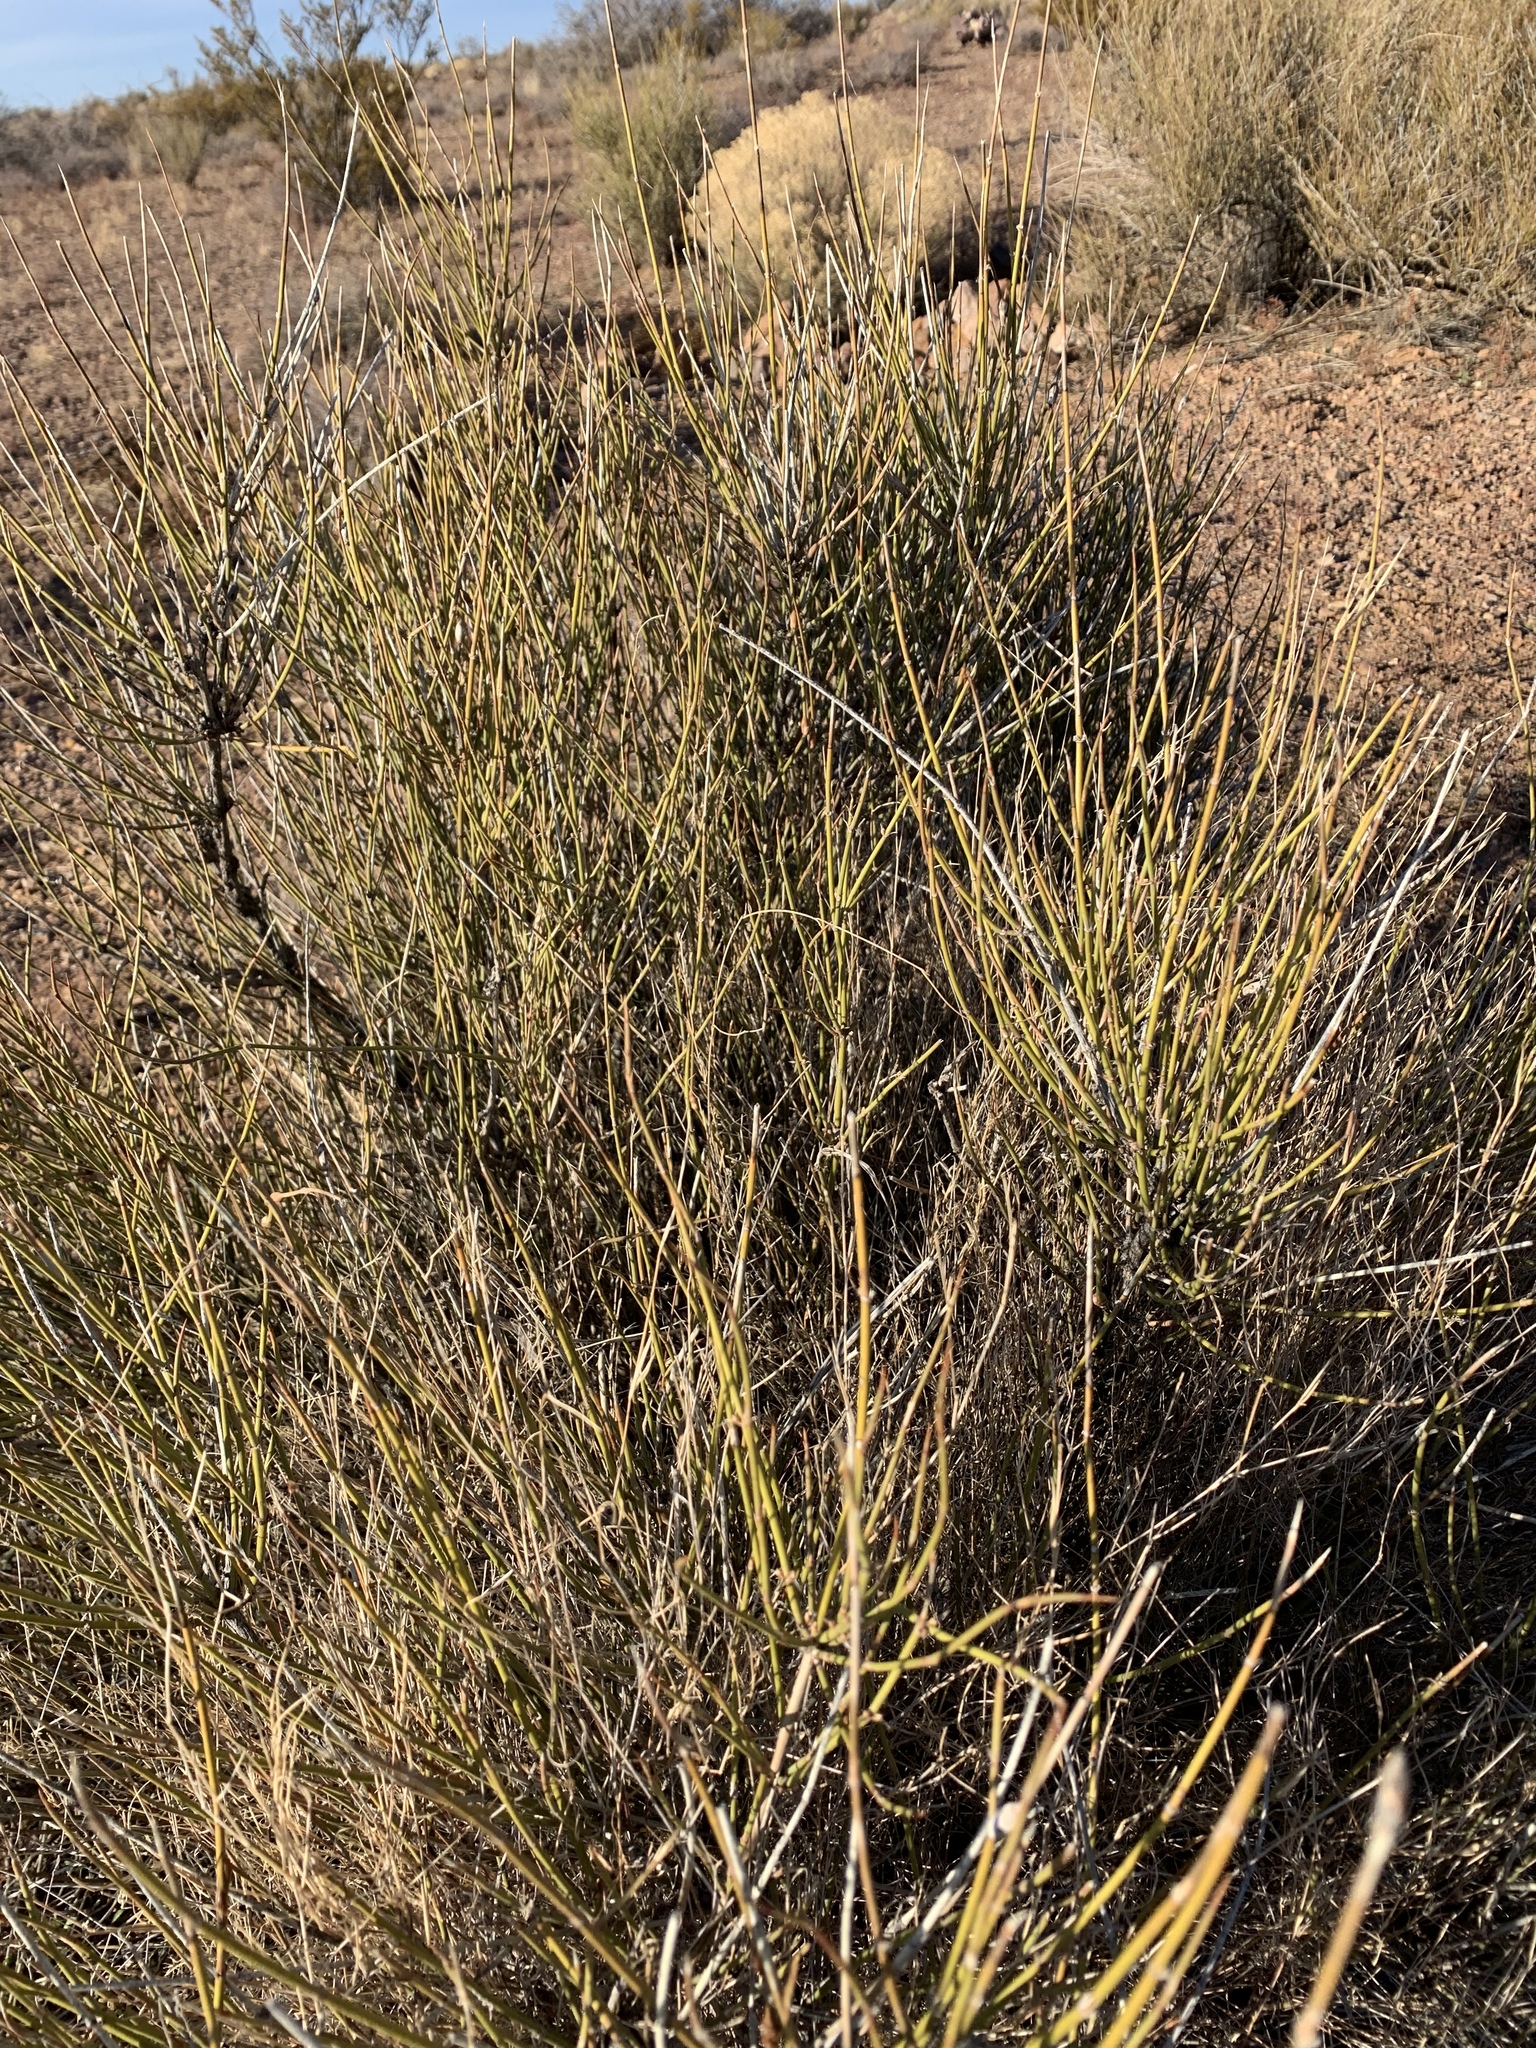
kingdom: Plantae
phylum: Tracheophyta
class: Gnetopsida
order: Ephedrales
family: Ephedraceae
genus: Ephedra
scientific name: Ephedra trifurca
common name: Mexican-tea
